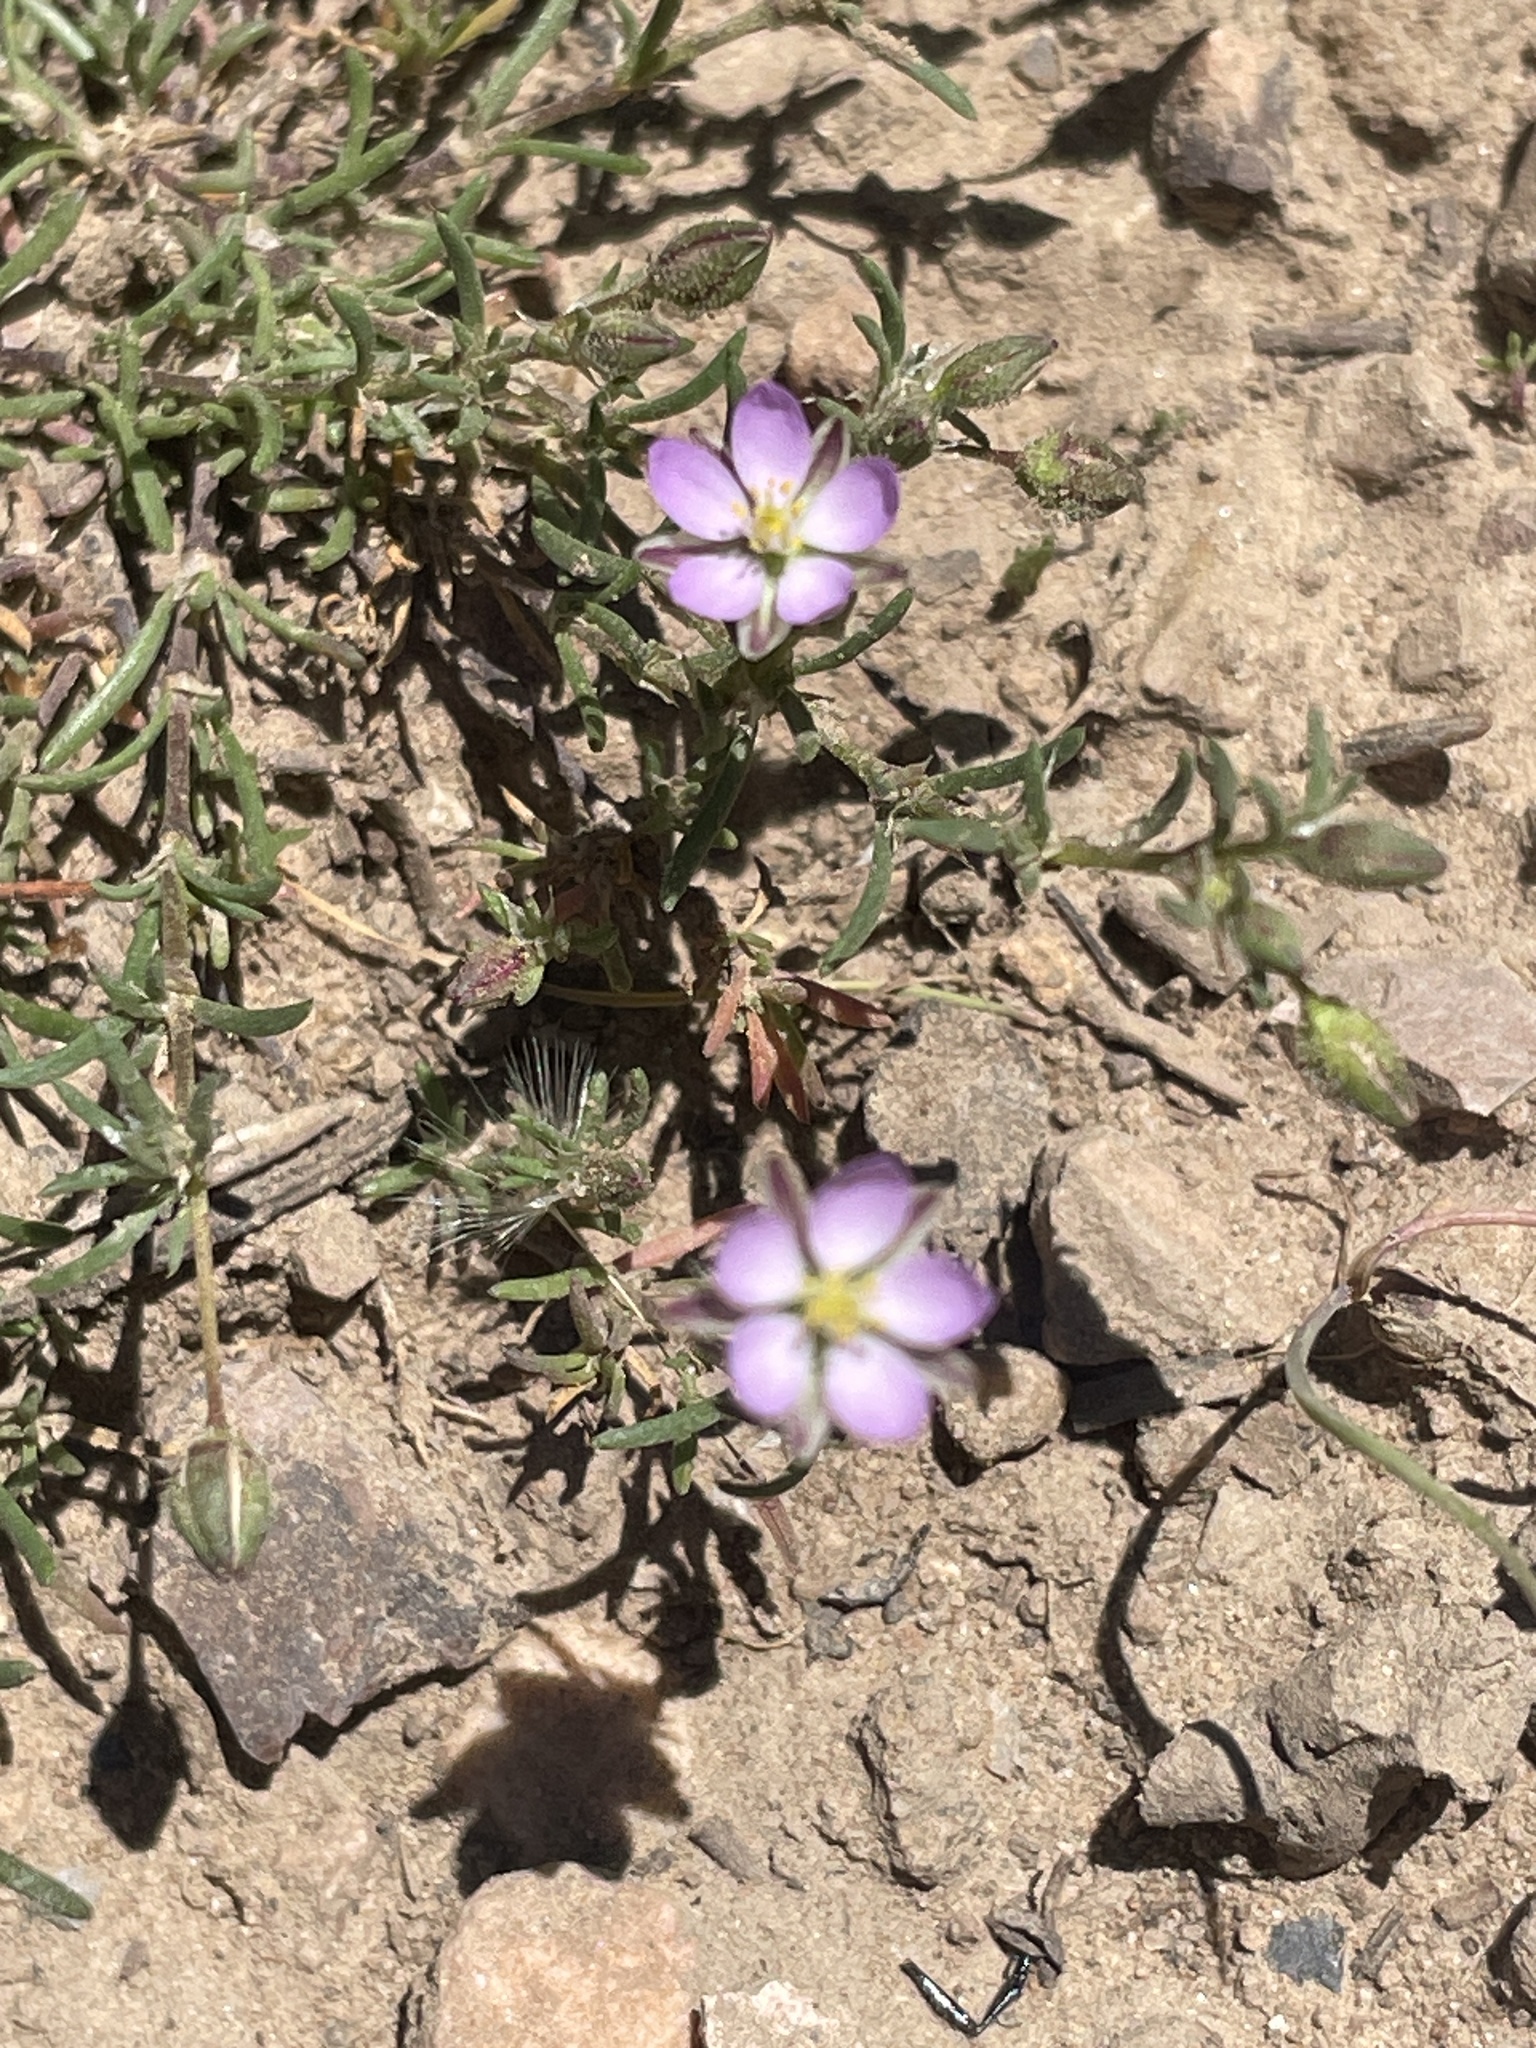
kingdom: Plantae
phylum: Tracheophyta
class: Magnoliopsida
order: Caryophyllales
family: Caryophyllaceae
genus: Spergularia
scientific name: Spergularia rubra
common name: Red sand-spurrey
